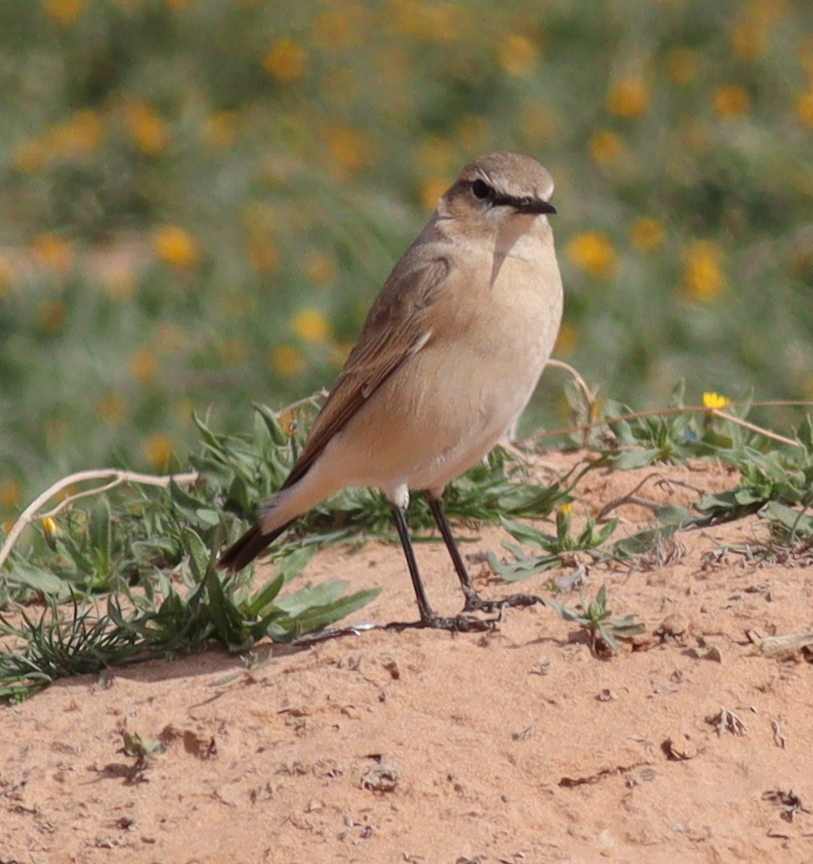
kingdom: Animalia
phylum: Chordata
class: Aves
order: Passeriformes
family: Muscicapidae
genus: Oenanthe
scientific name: Oenanthe isabellina
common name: Isabelline wheatear
